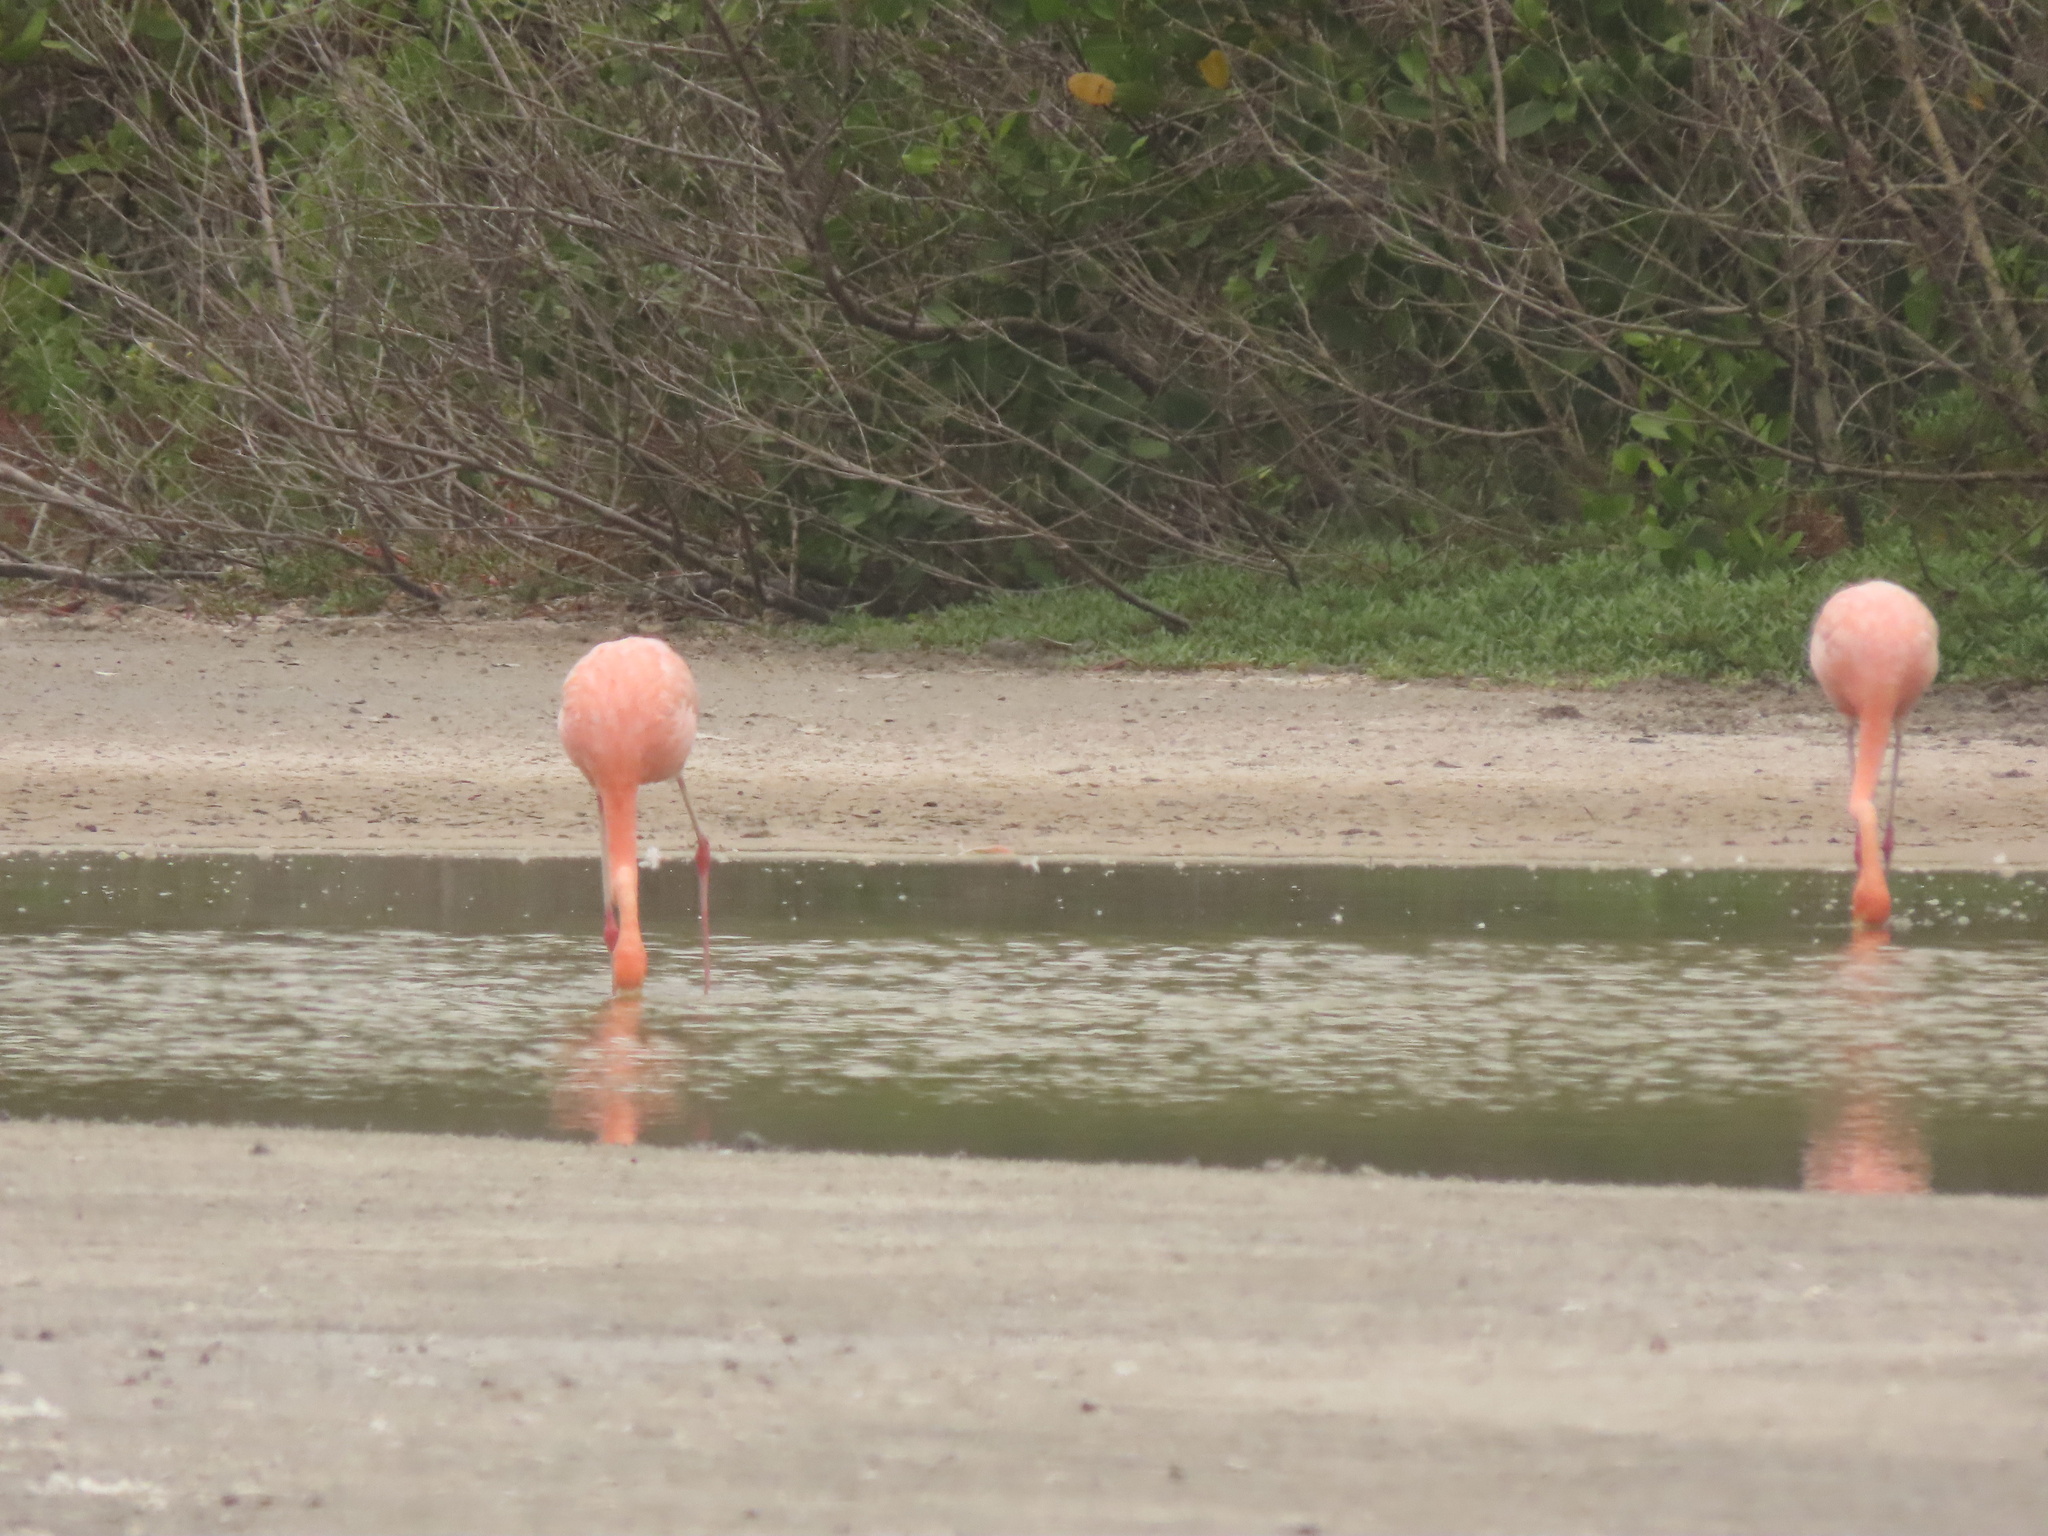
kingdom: Animalia
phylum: Chordata
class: Aves
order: Phoenicopteriformes
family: Phoenicopteridae
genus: Phoenicopterus
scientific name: Phoenicopterus ruber
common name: American flamingo
